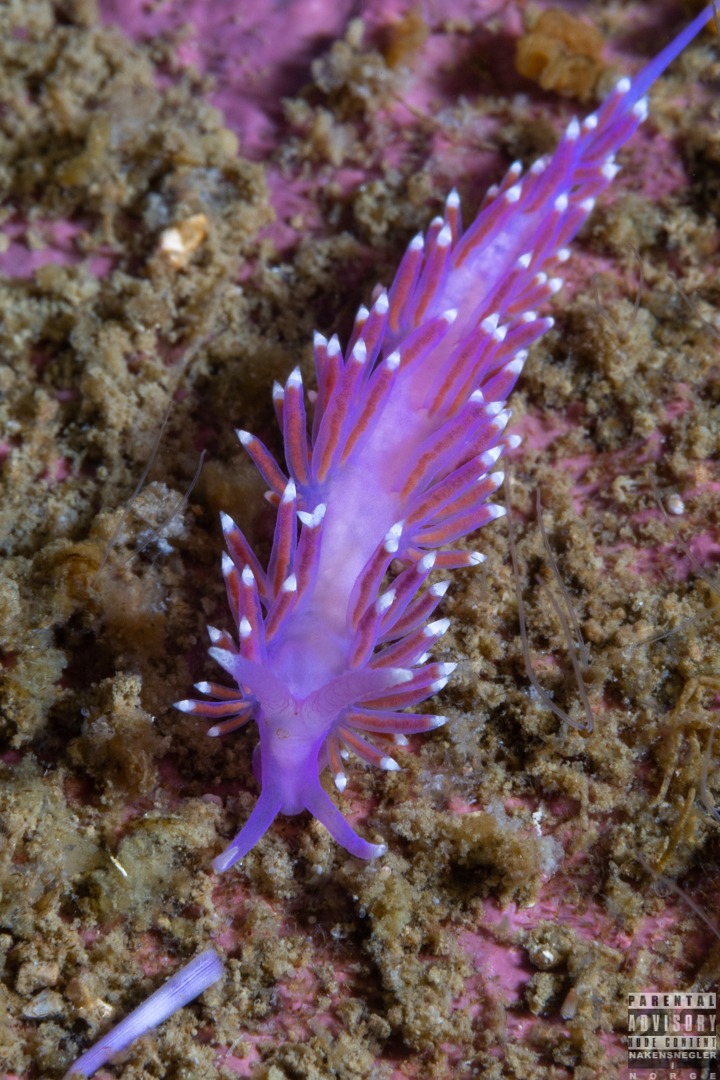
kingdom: Animalia
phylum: Mollusca
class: Gastropoda
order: Nudibranchia
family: Flabellinidae
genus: Edmundsella
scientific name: Edmundsella pedata
